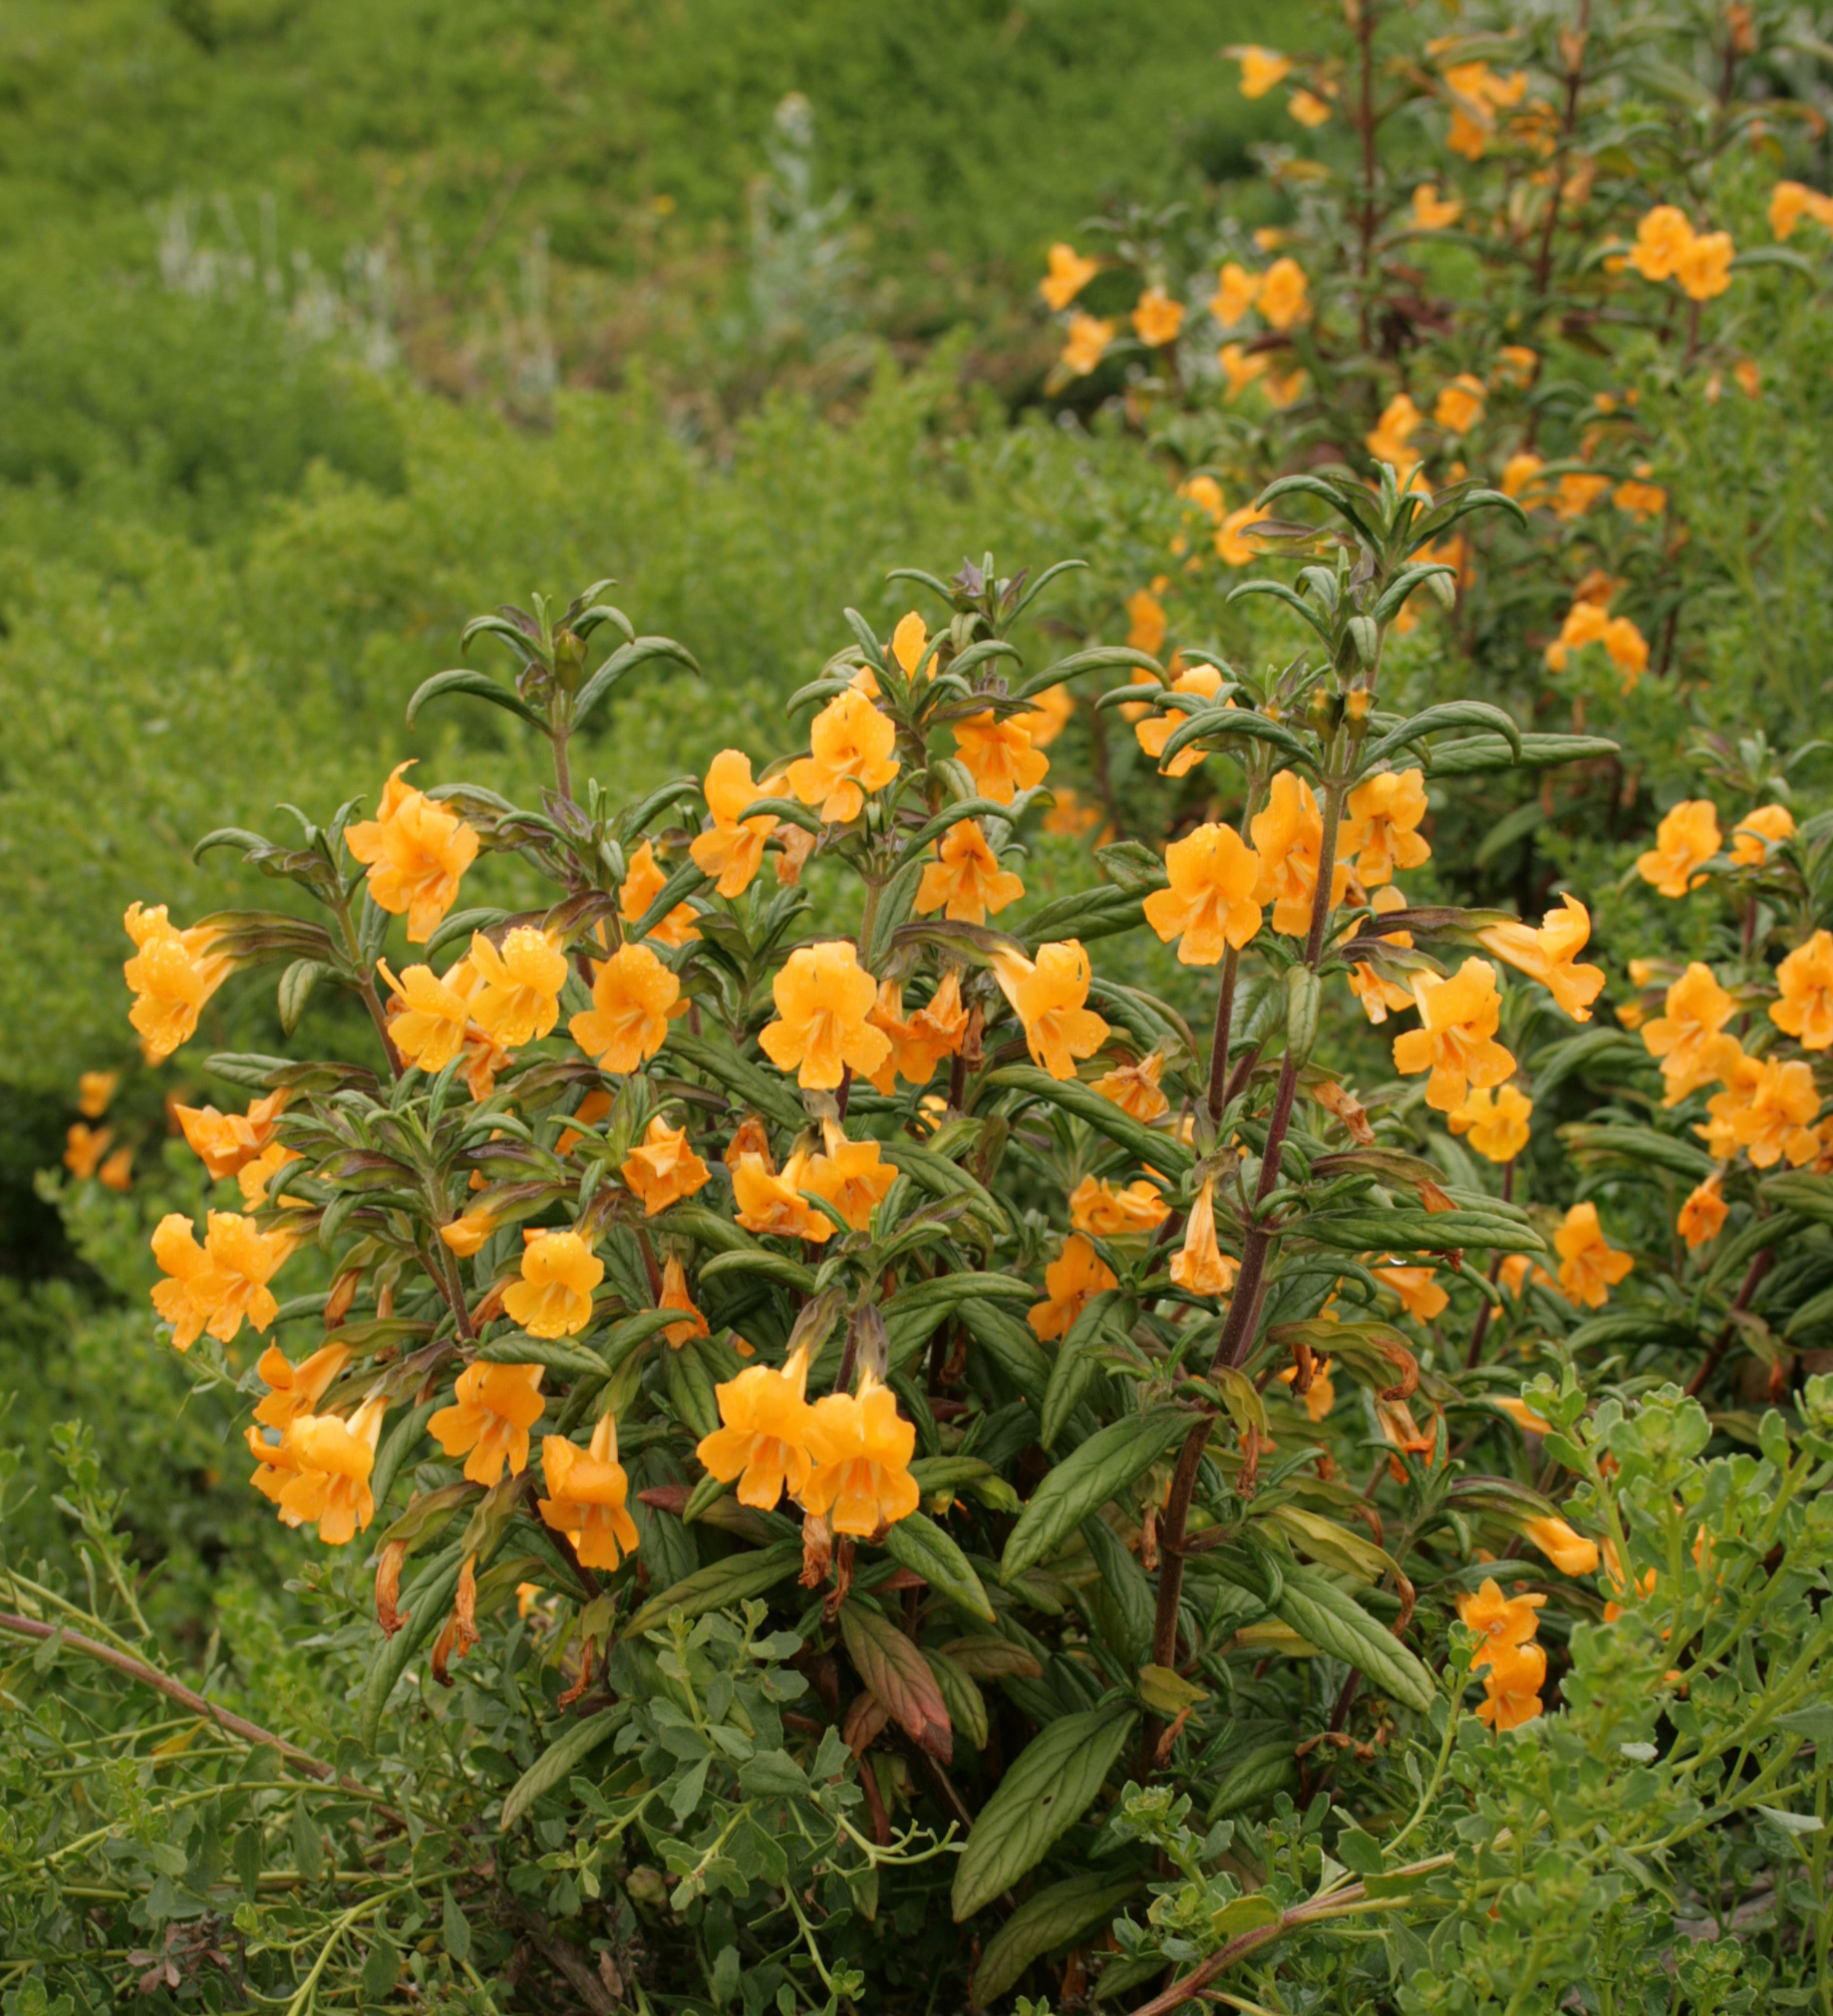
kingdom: Plantae
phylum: Tracheophyta
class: Magnoliopsida
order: Lamiales
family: Phrymaceae
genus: Diplacus
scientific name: Diplacus aurantiacus
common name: Bush monkey-flower
